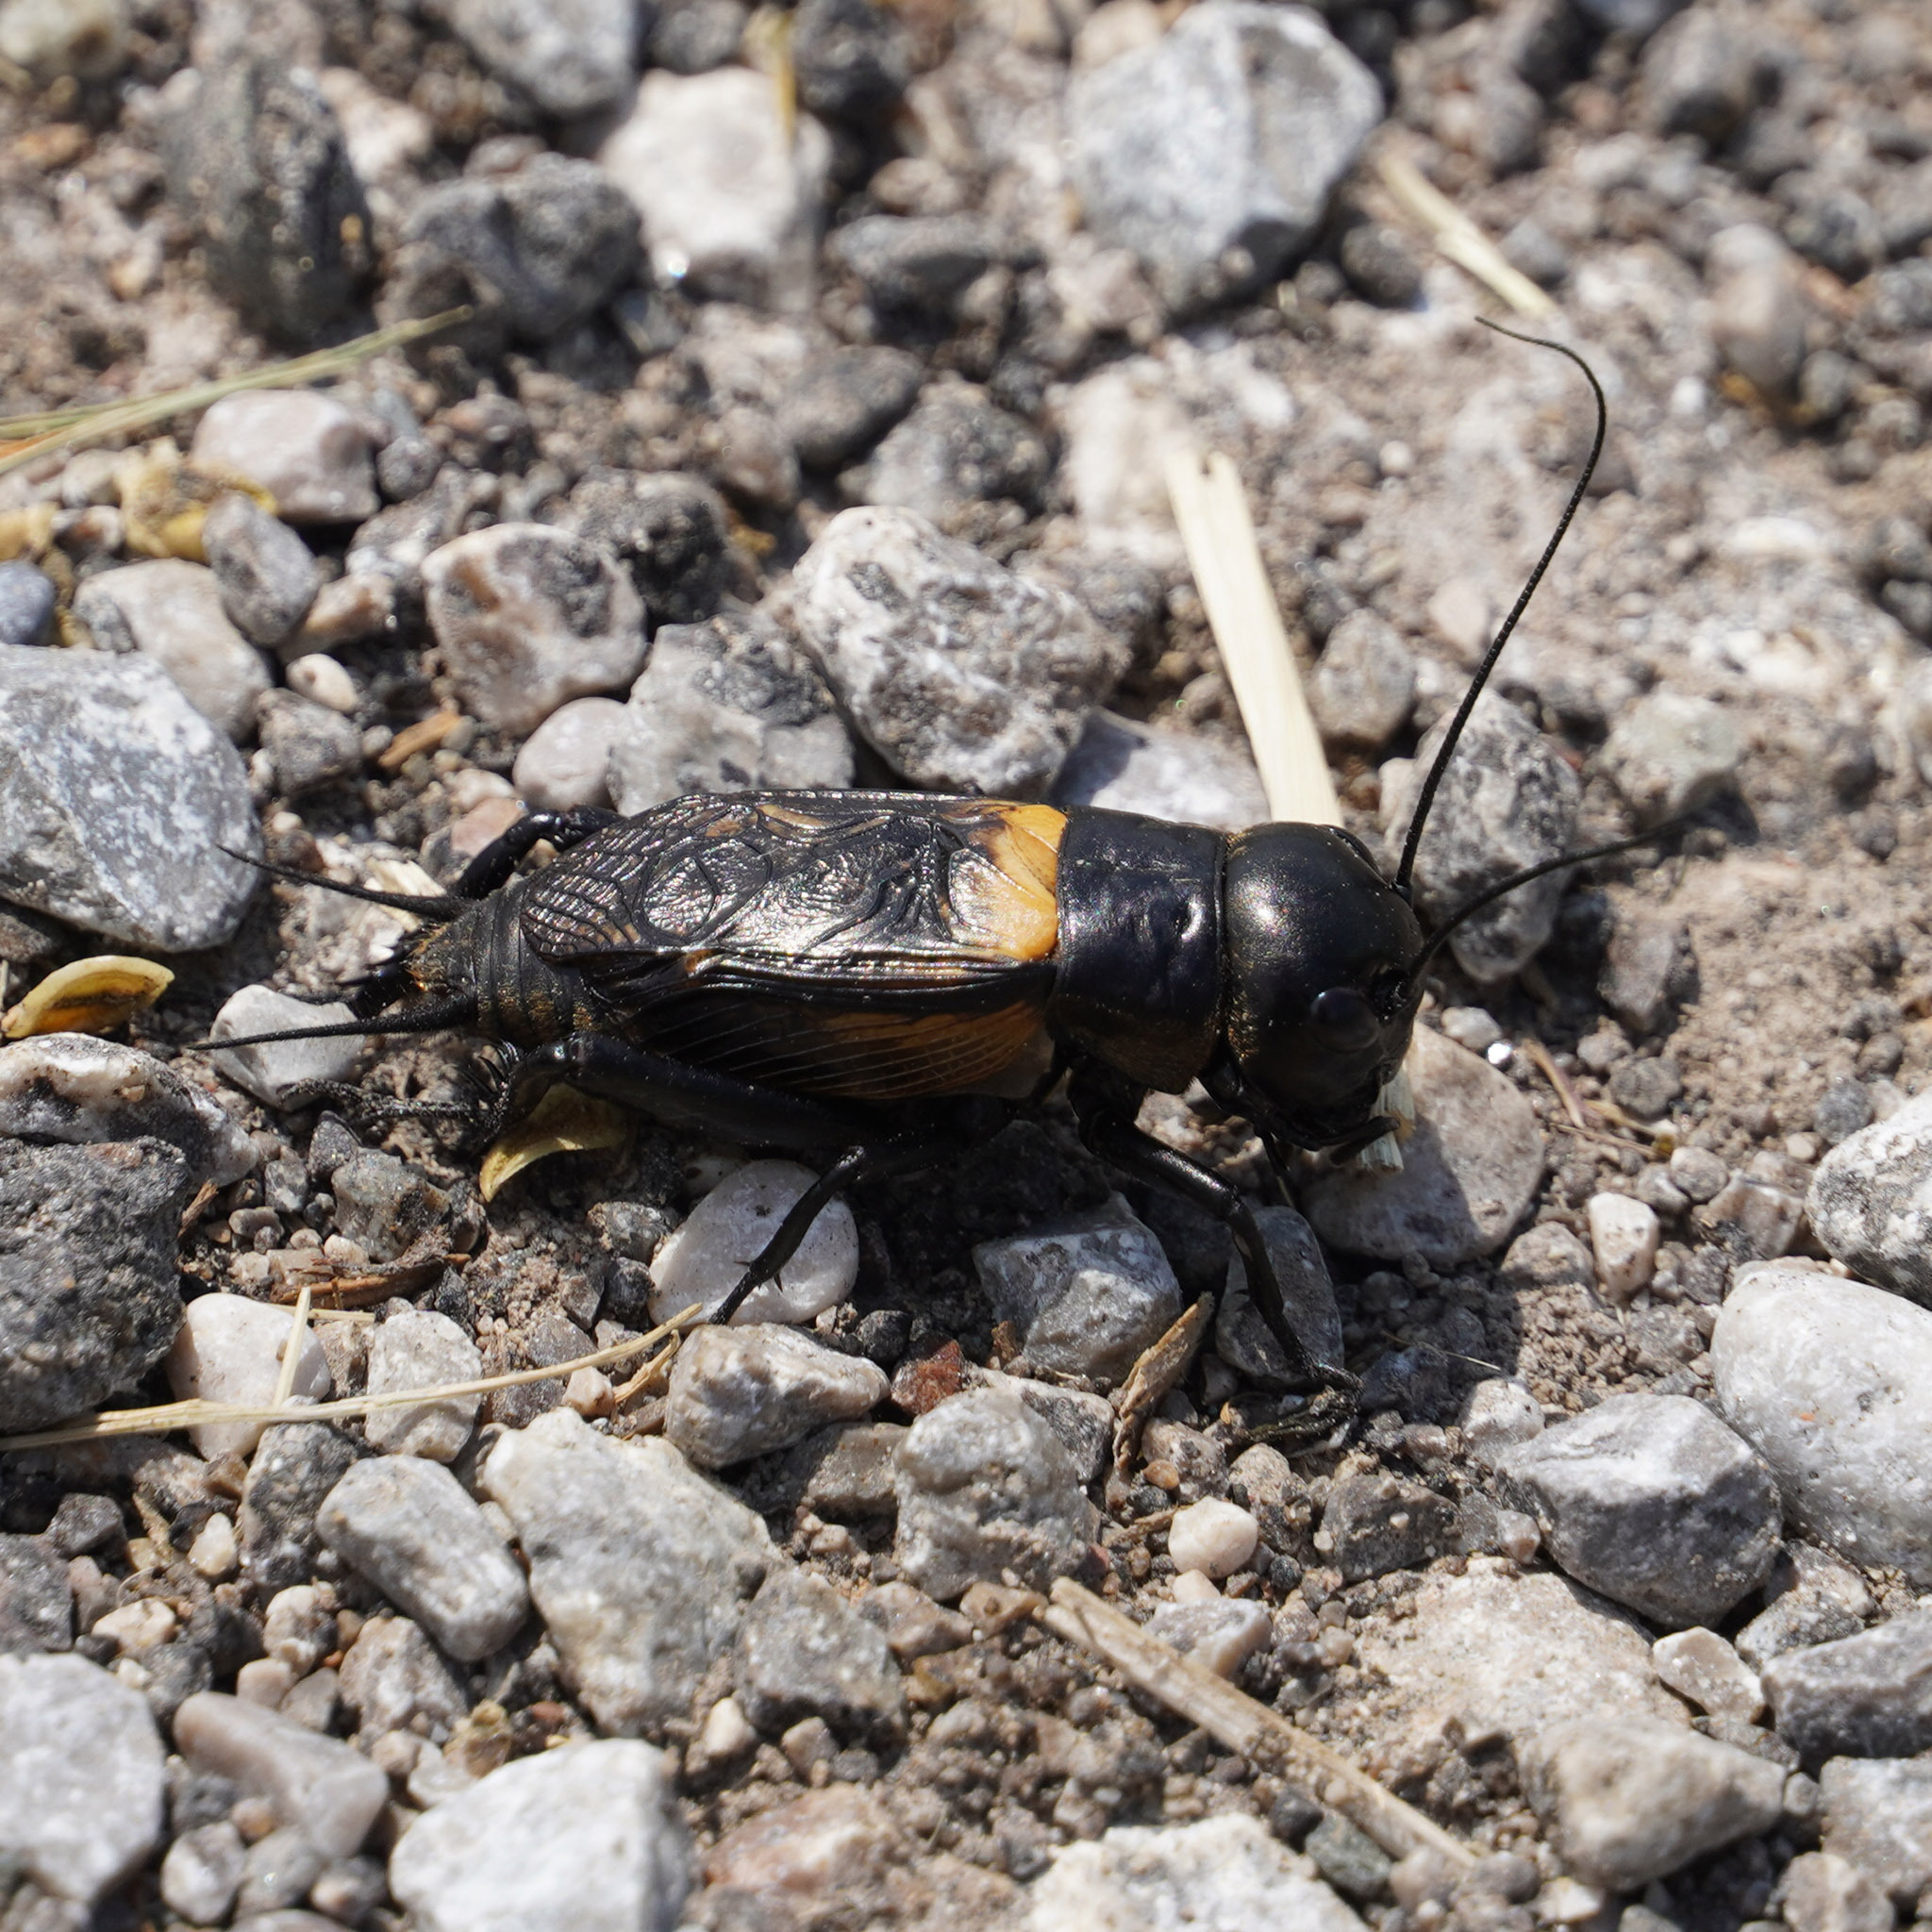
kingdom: Animalia
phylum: Arthropoda
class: Insecta
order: Orthoptera
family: Gryllidae
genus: Gryllus
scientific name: Gryllus campestris
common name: Field cricket
